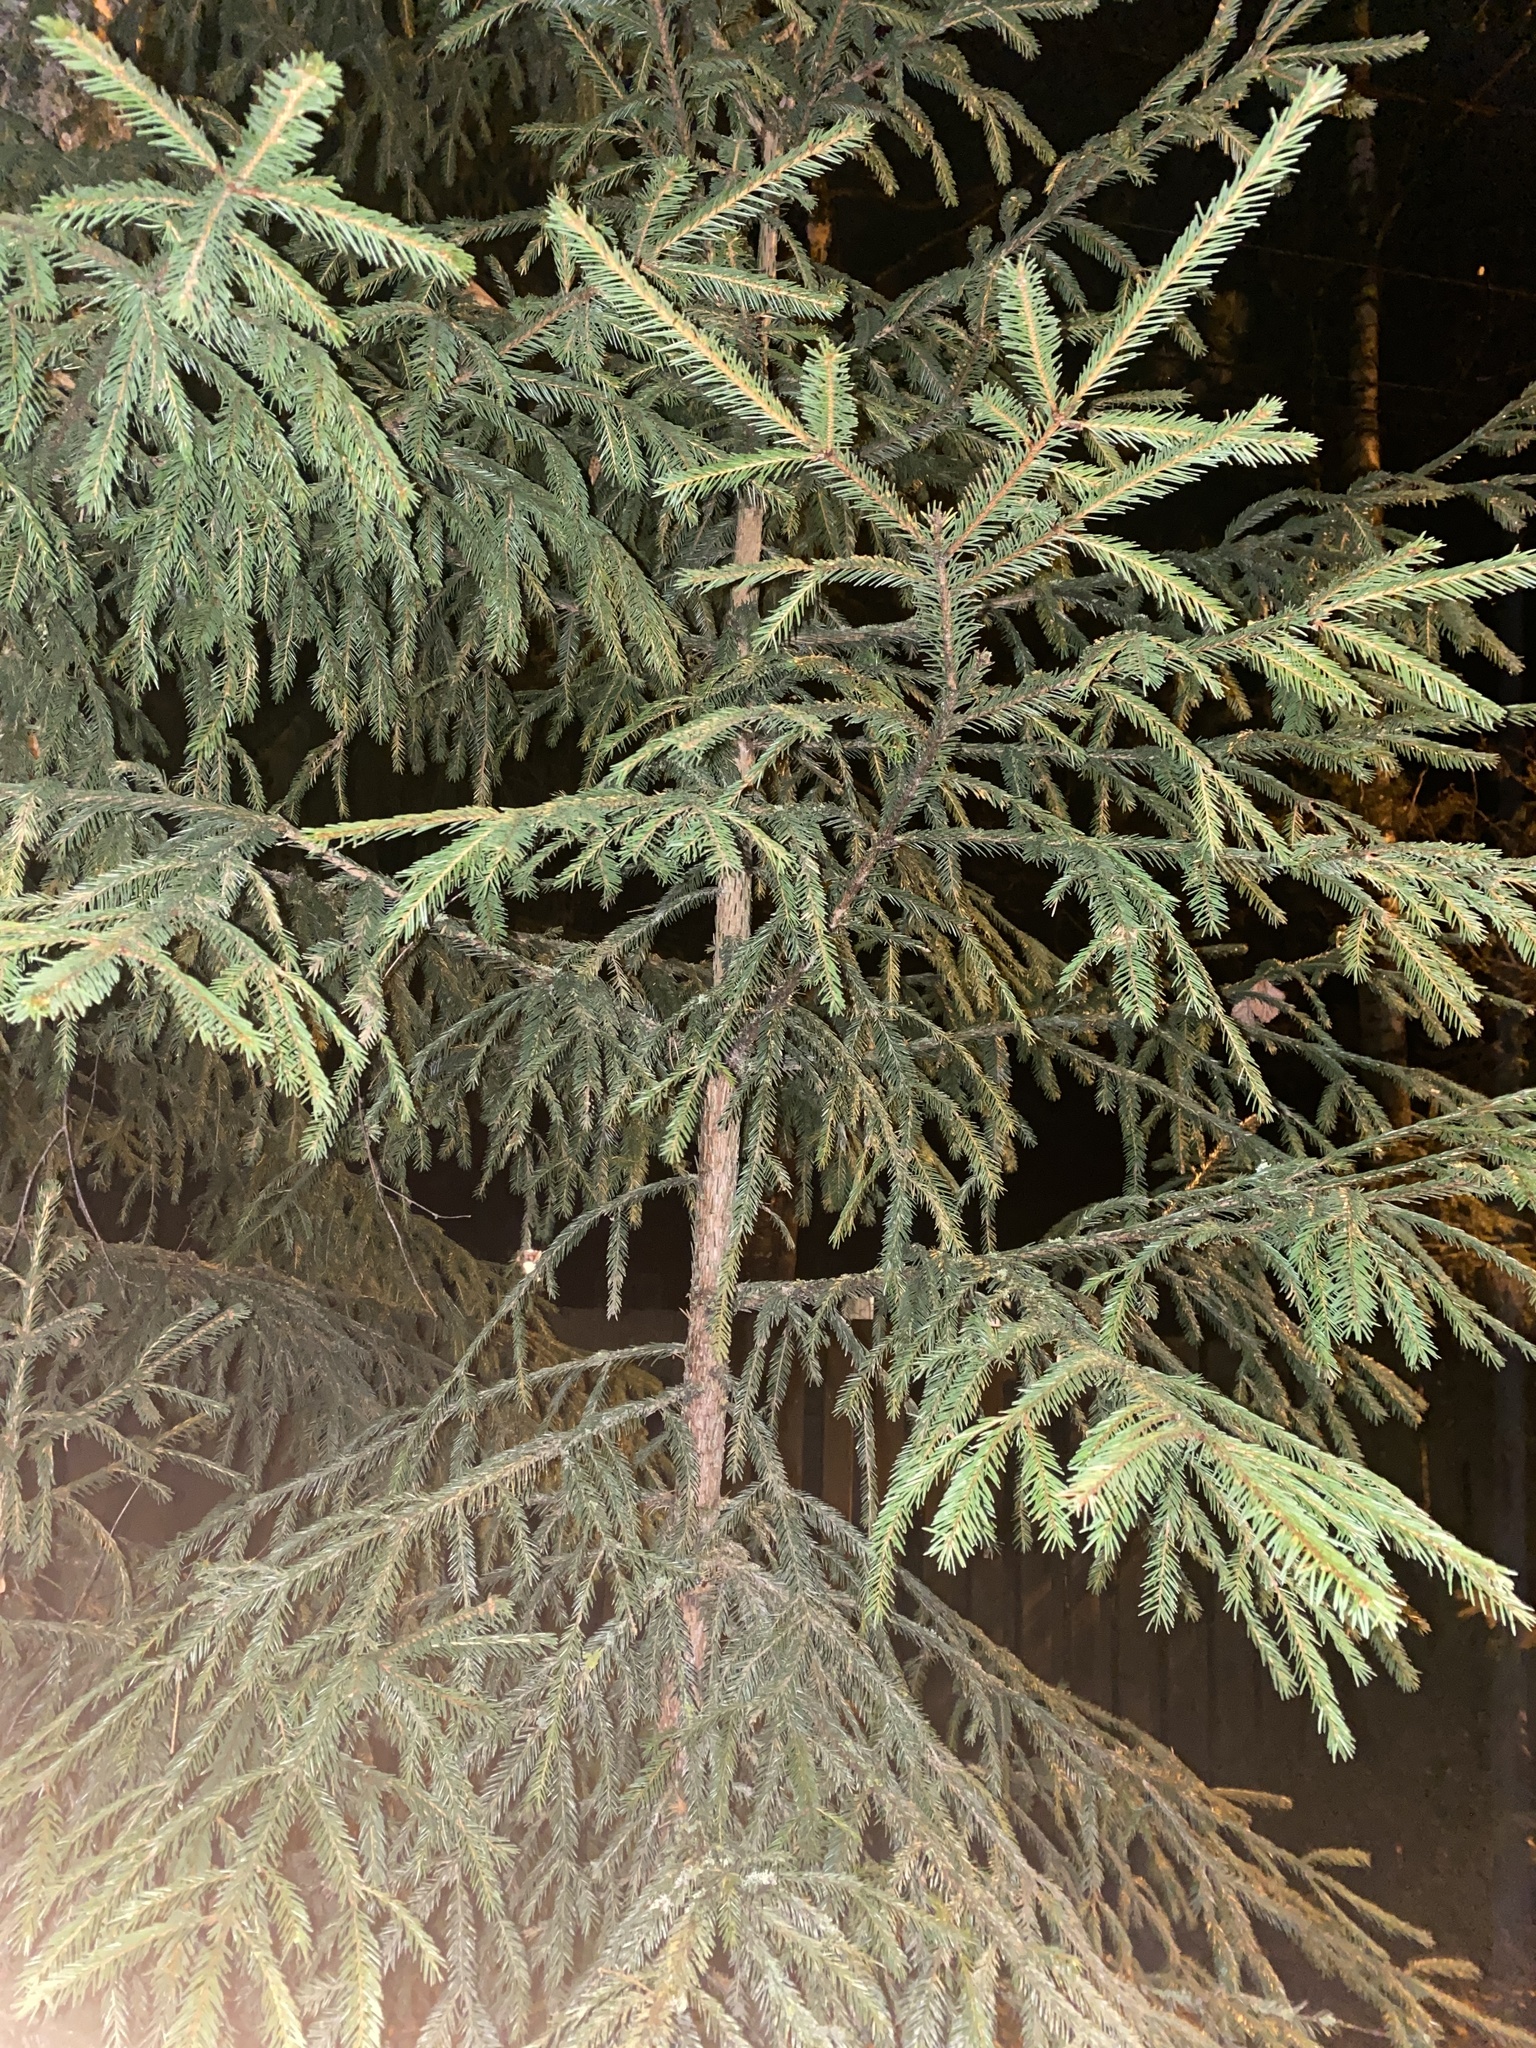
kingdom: Plantae
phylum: Tracheophyta
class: Pinopsida
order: Pinales
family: Pinaceae
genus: Picea
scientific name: Picea abies
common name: Norway spruce
